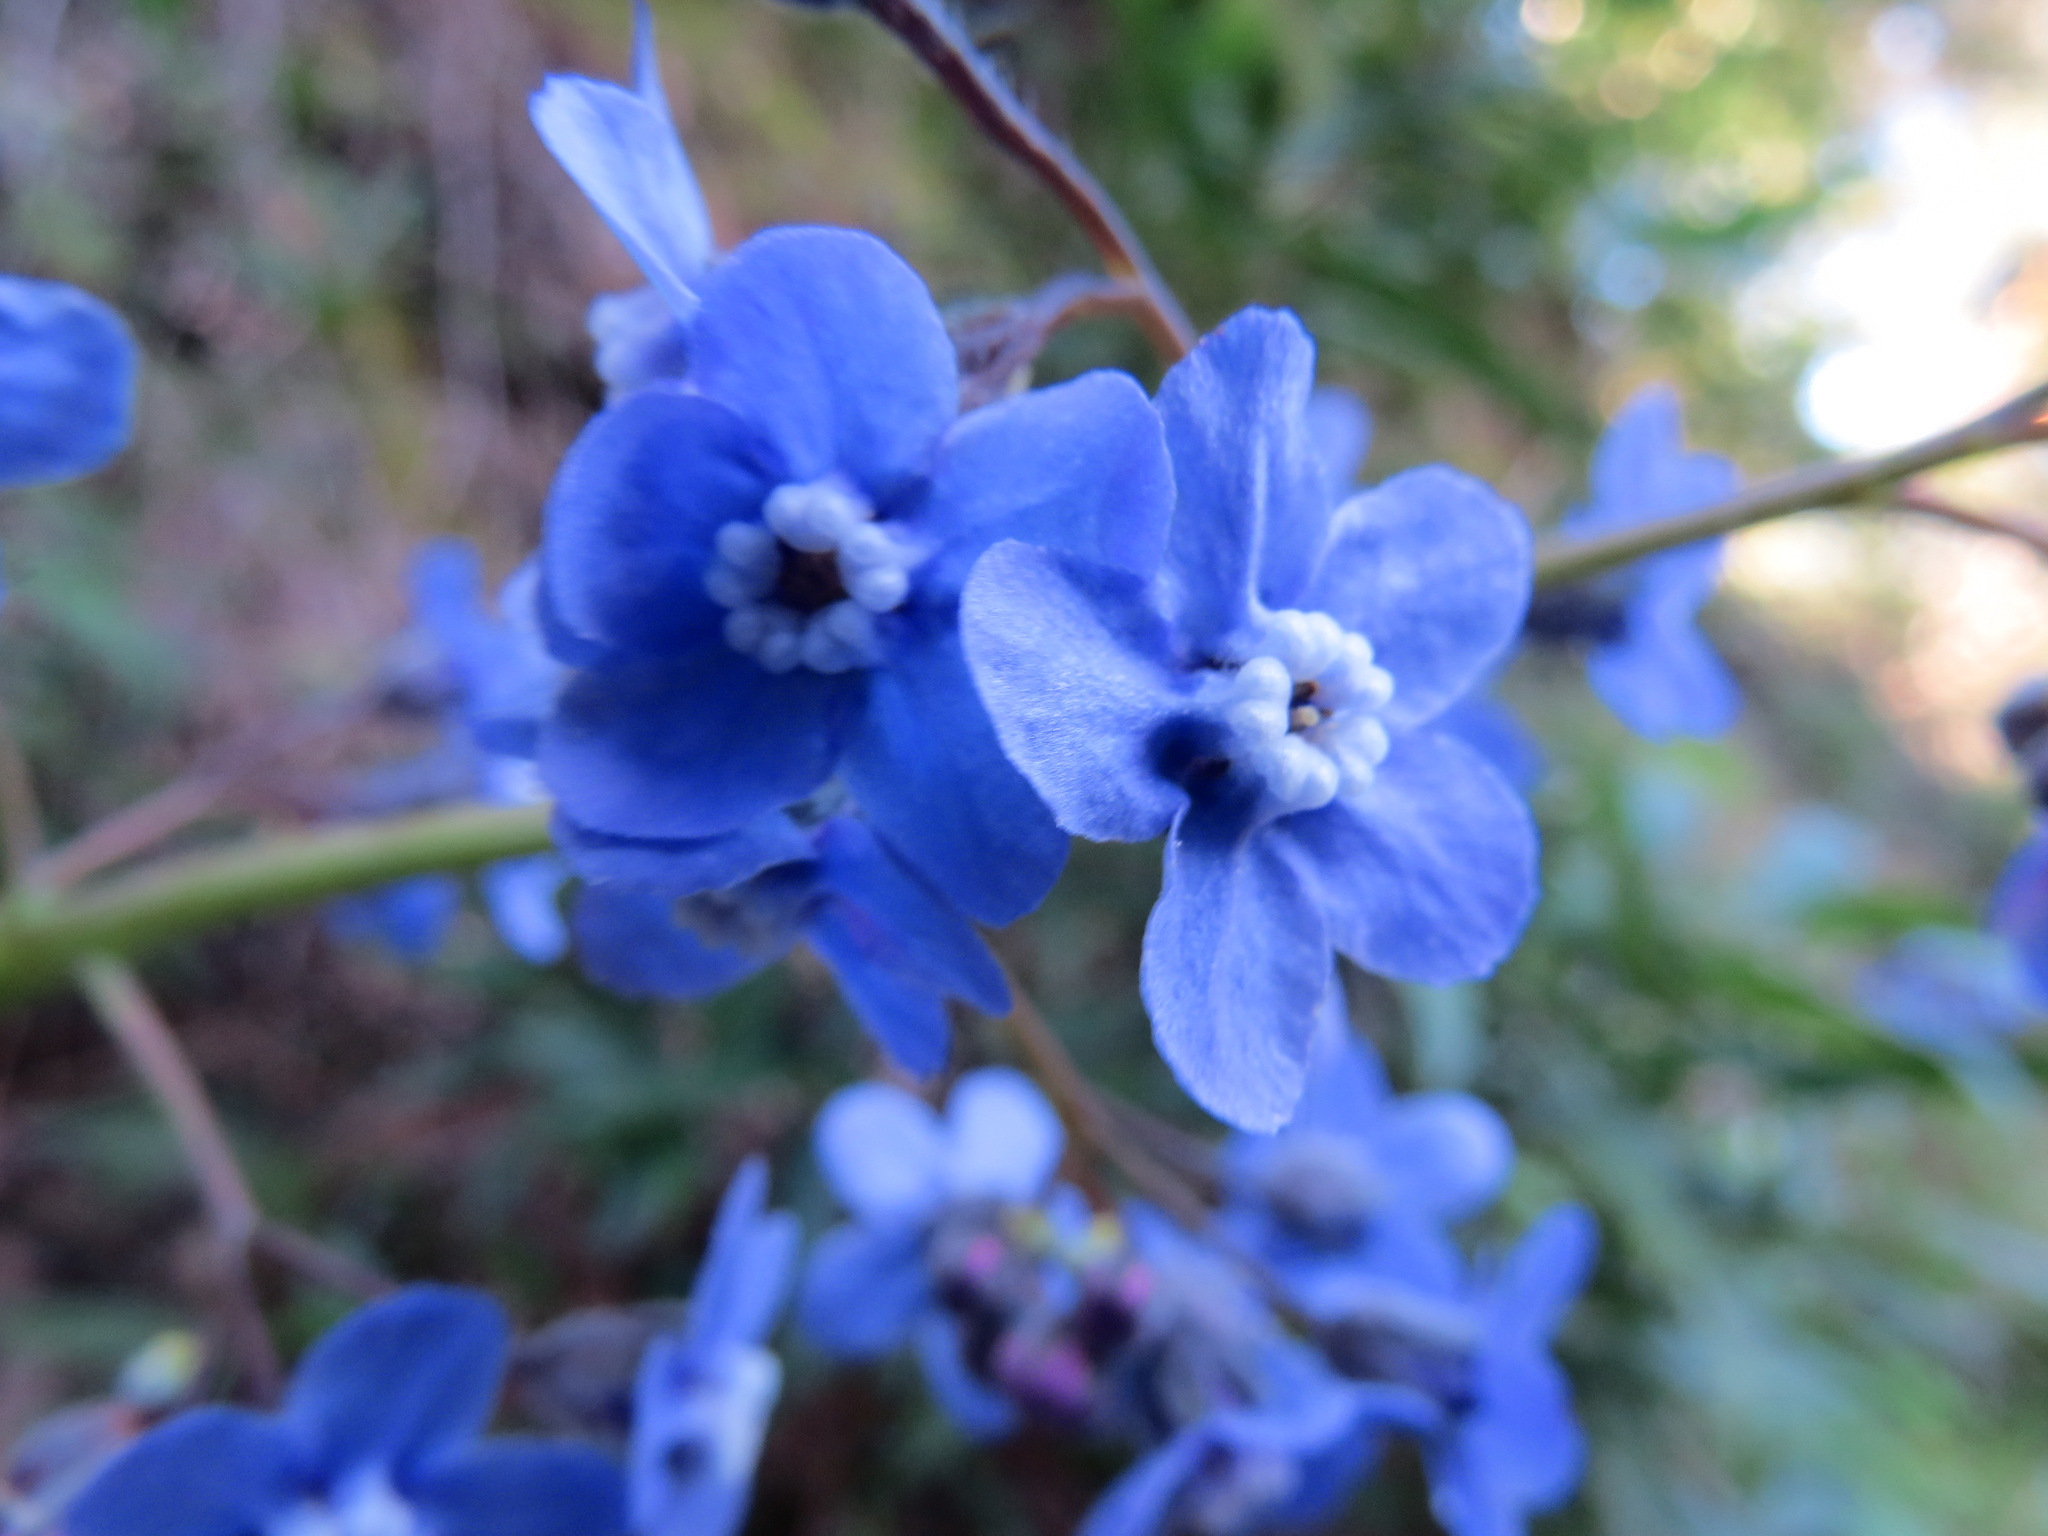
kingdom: Plantae
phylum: Tracheophyta
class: Magnoliopsida
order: Boraginales
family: Boraginaceae
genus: Adelinia
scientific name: Adelinia grande
